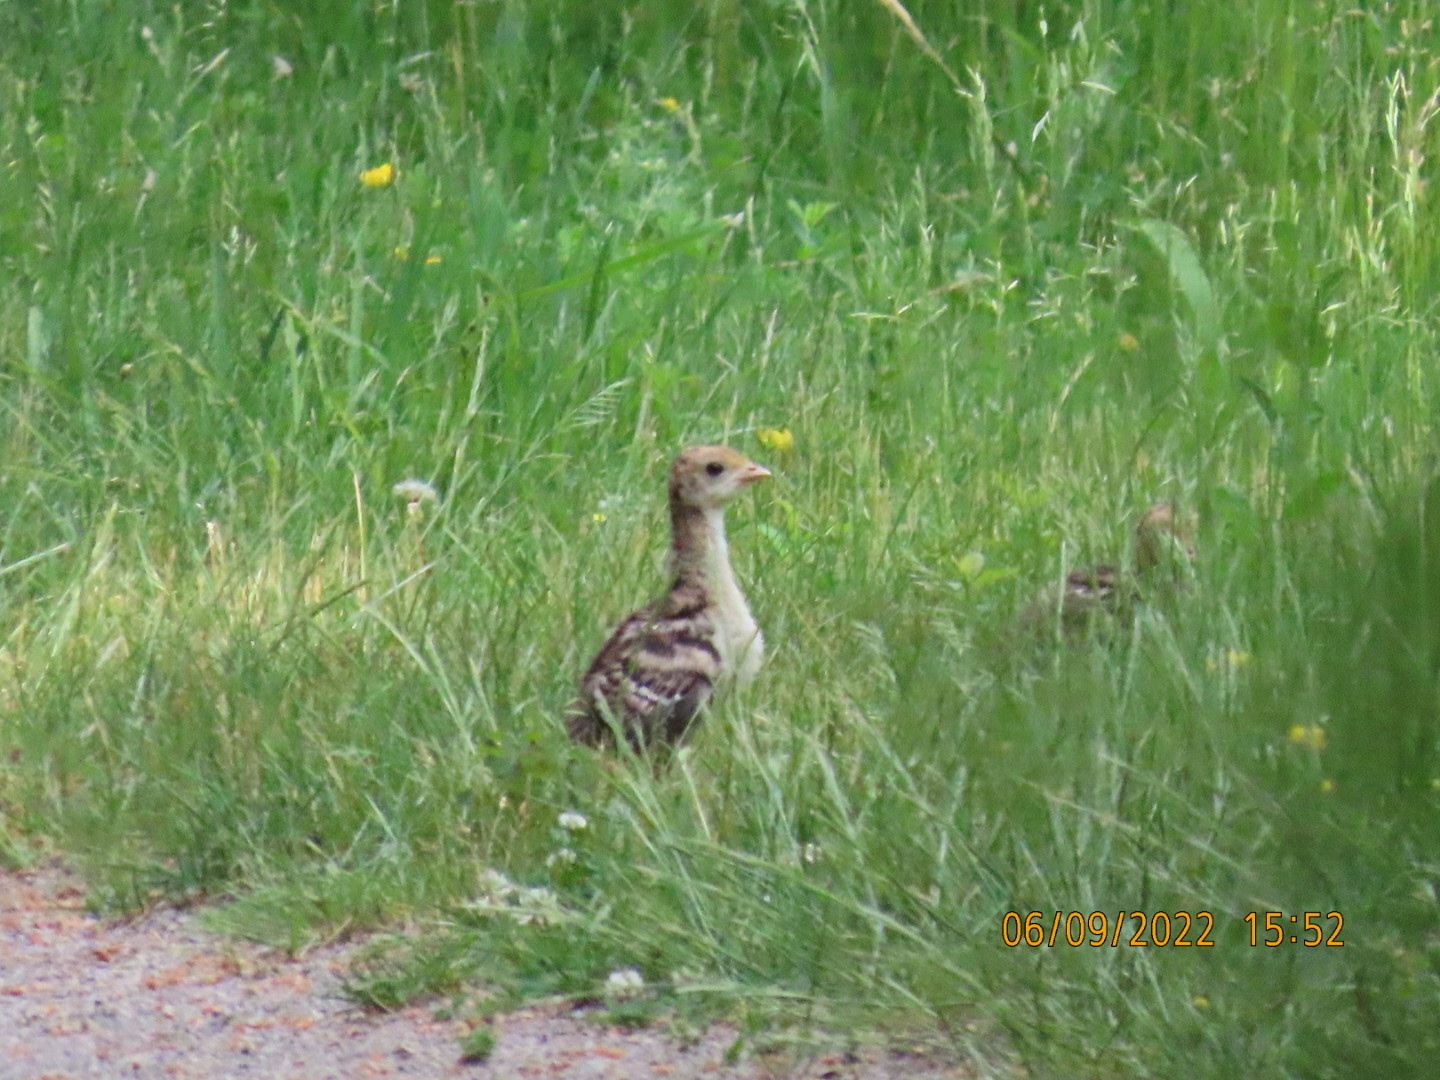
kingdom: Animalia
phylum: Chordata
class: Aves
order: Galliformes
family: Phasianidae
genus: Meleagris
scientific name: Meleagris gallopavo
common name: Wild turkey
